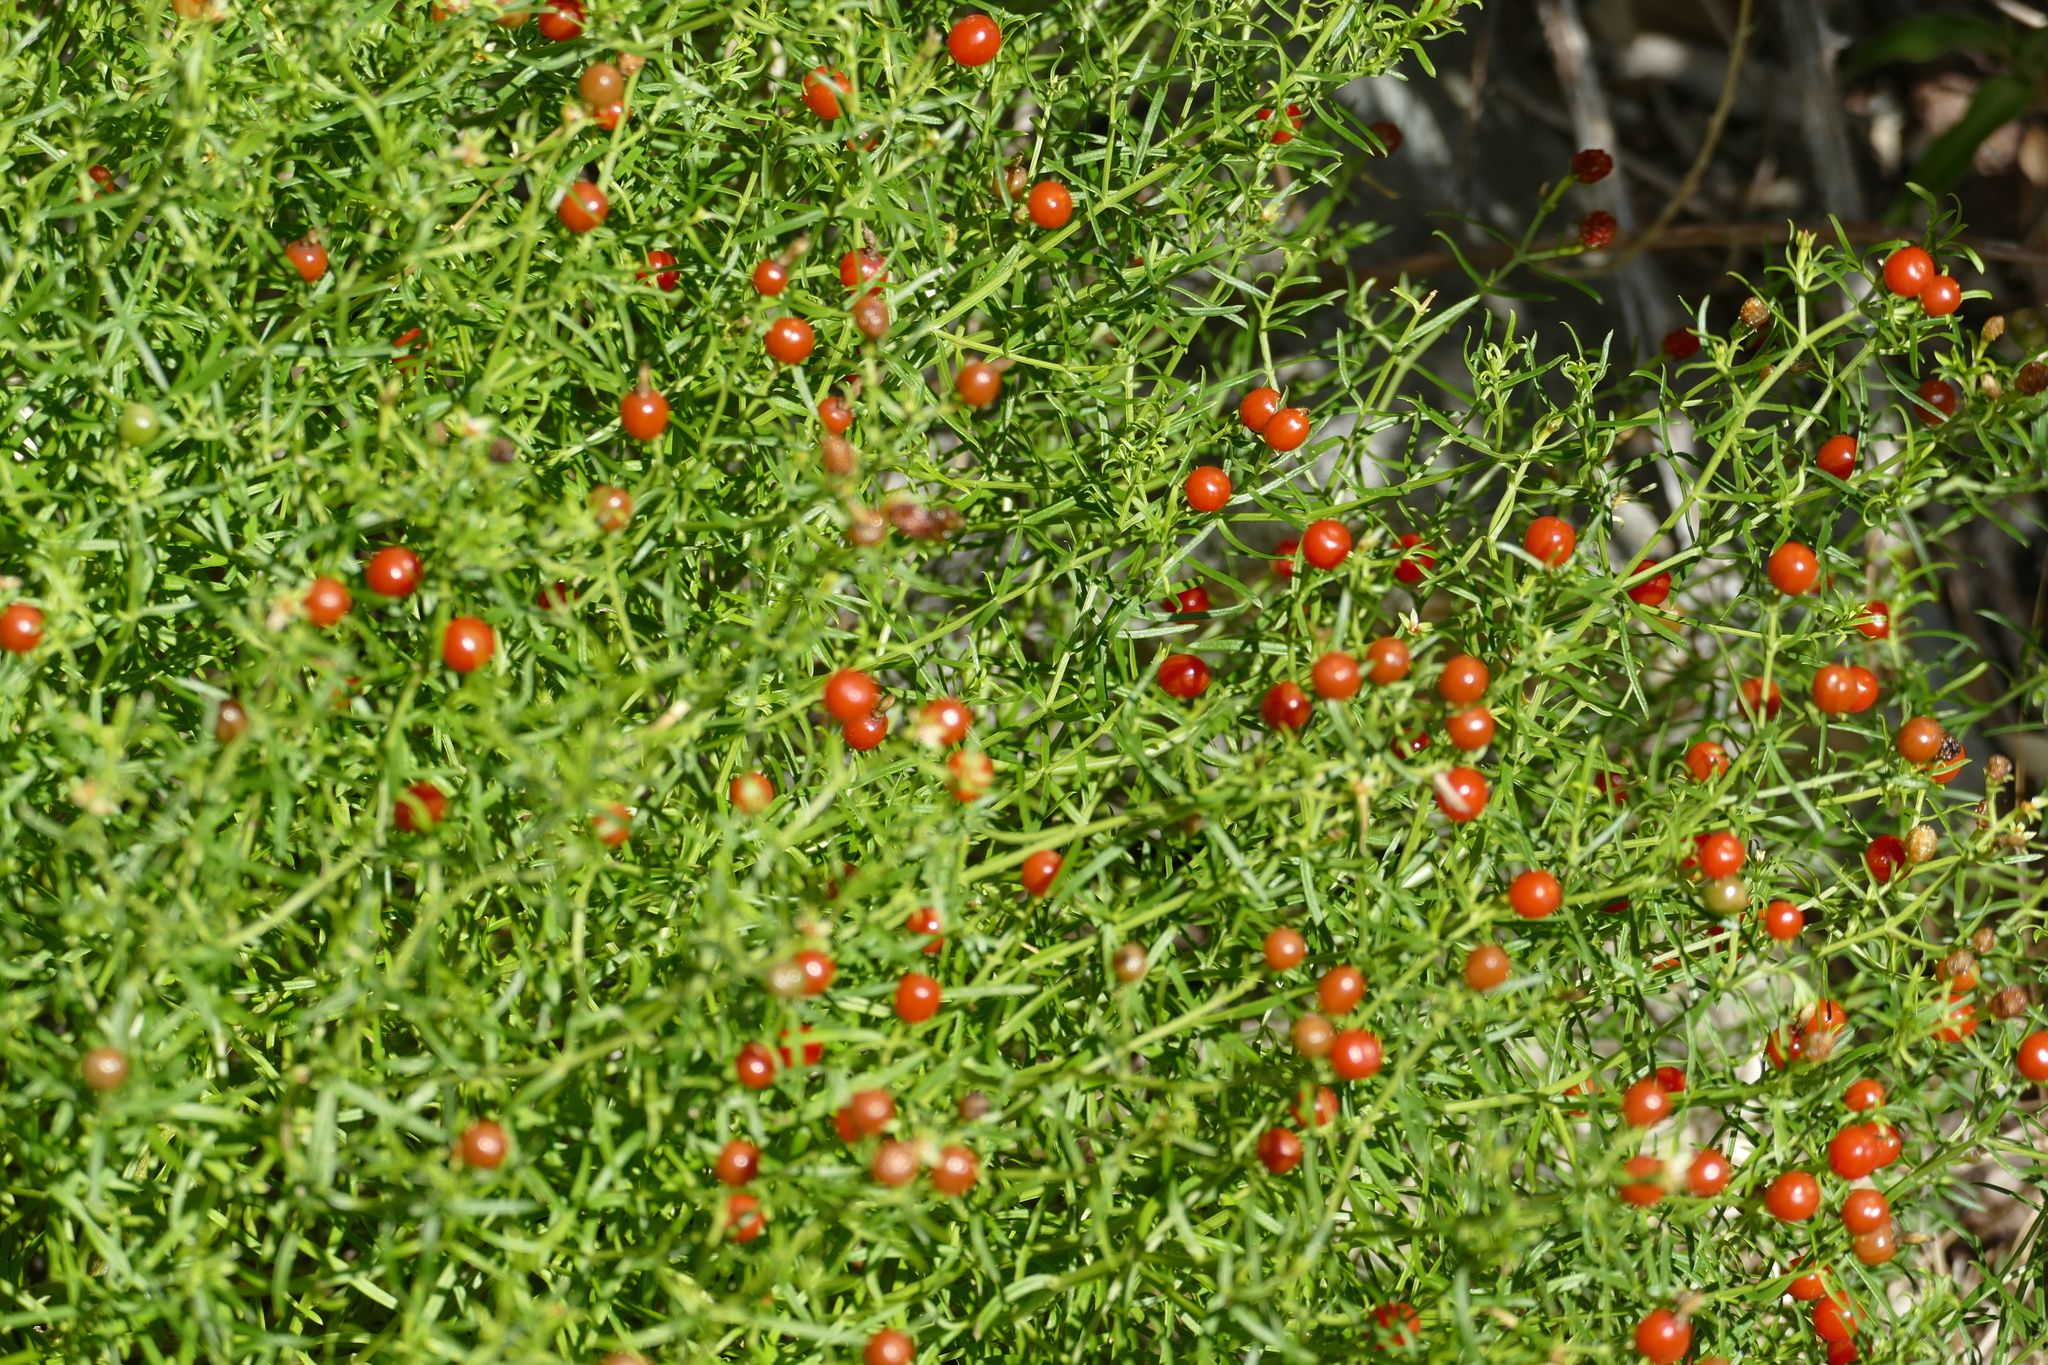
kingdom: Plantae
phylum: Tracheophyta
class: Magnoliopsida
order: Gentianales
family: Gentianaceae
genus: Chironia
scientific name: Chironia baccifera
